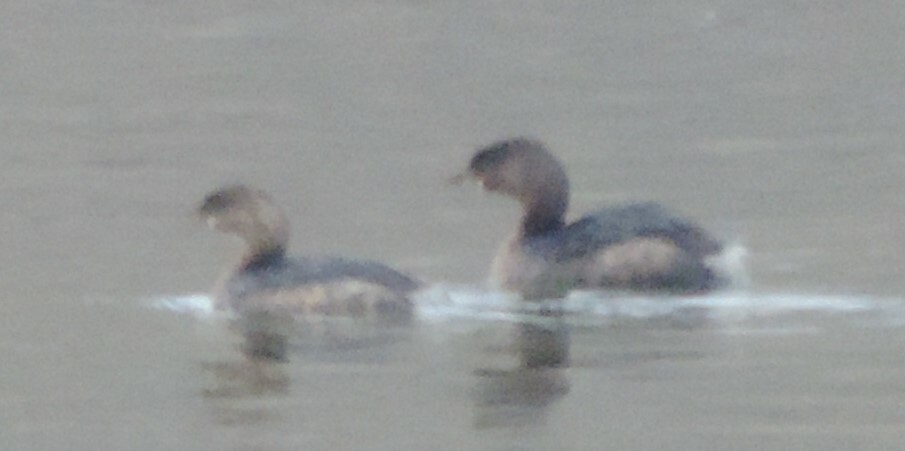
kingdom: Animalia
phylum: Chordata
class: Aves
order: Podicipediformes
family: Podicipedidae
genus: Podilymbus
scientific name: Podilymbus podiceps
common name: Pied-billed grebe
